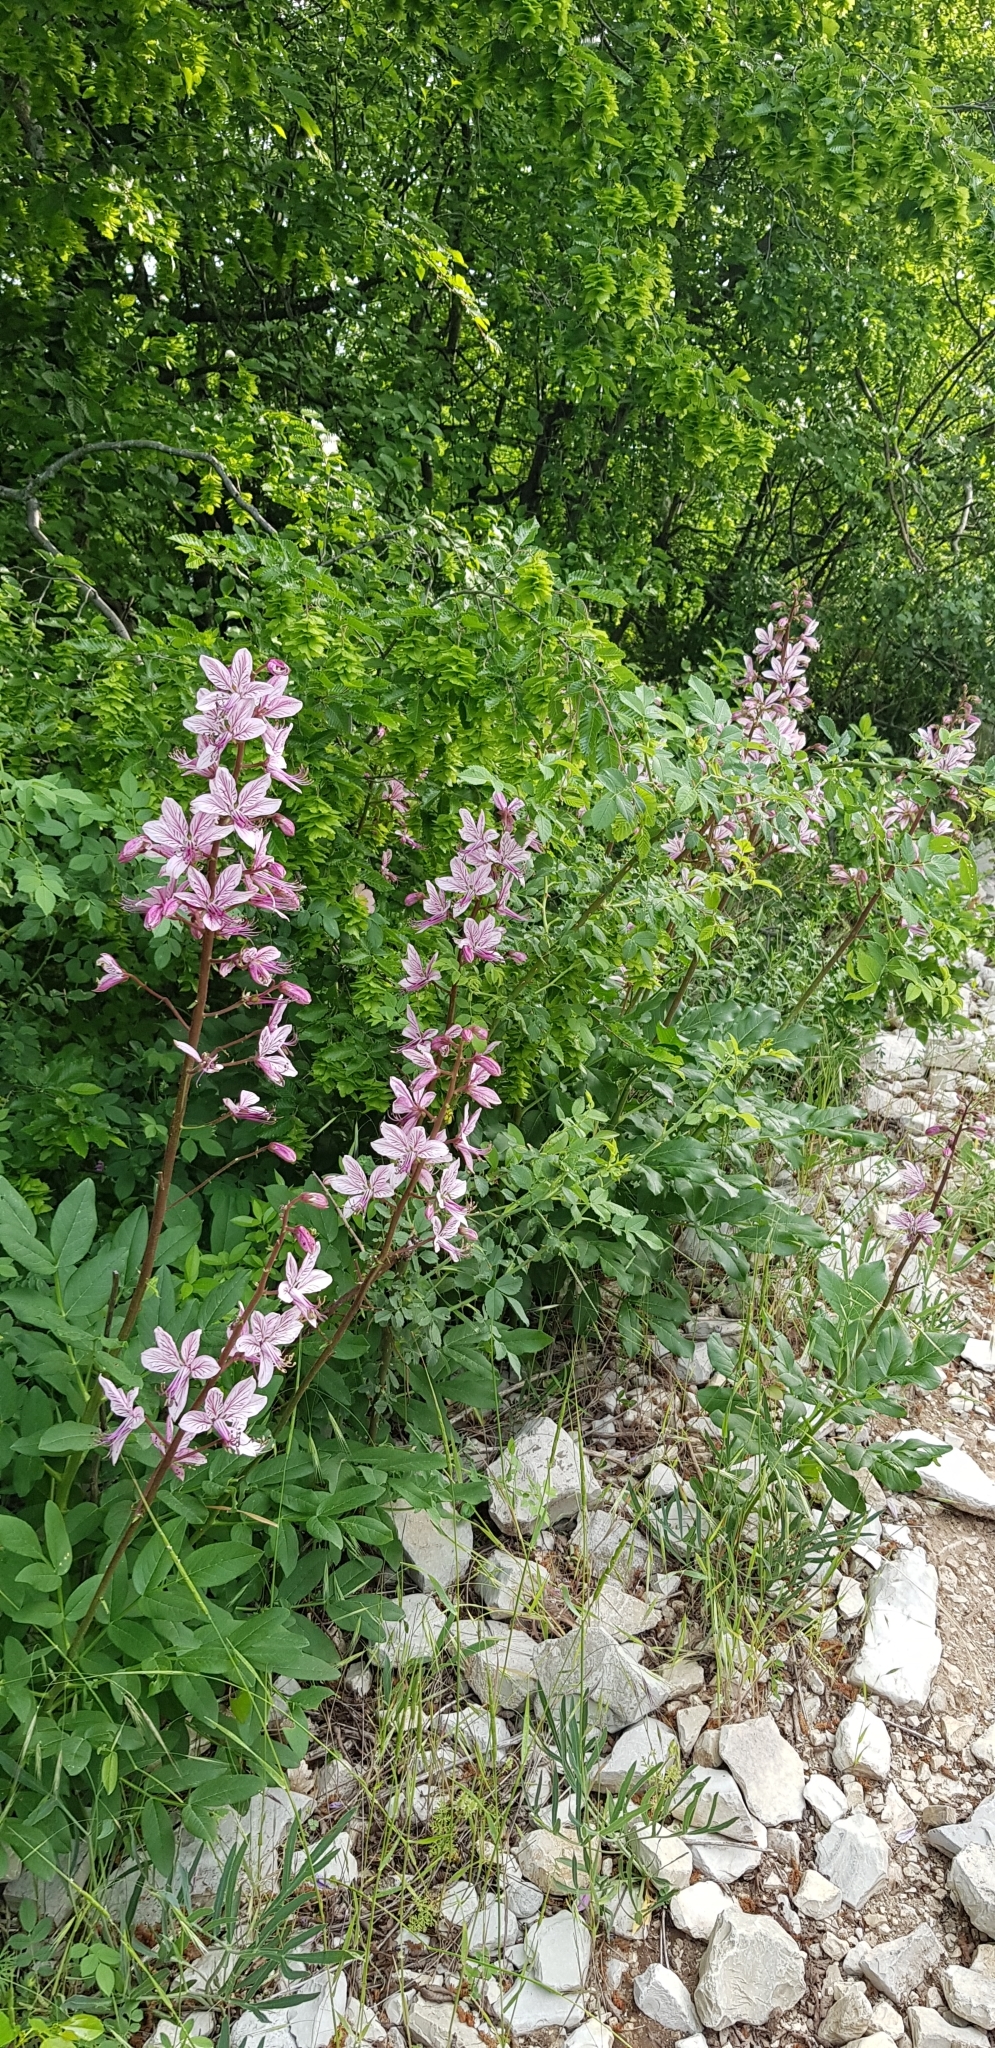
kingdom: Plantae
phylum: Tracheophyta
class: Magnoliopsida
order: Sapindales
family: Rutaceae
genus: Dictamnus
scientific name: Dictamnus albus
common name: Gasplant
